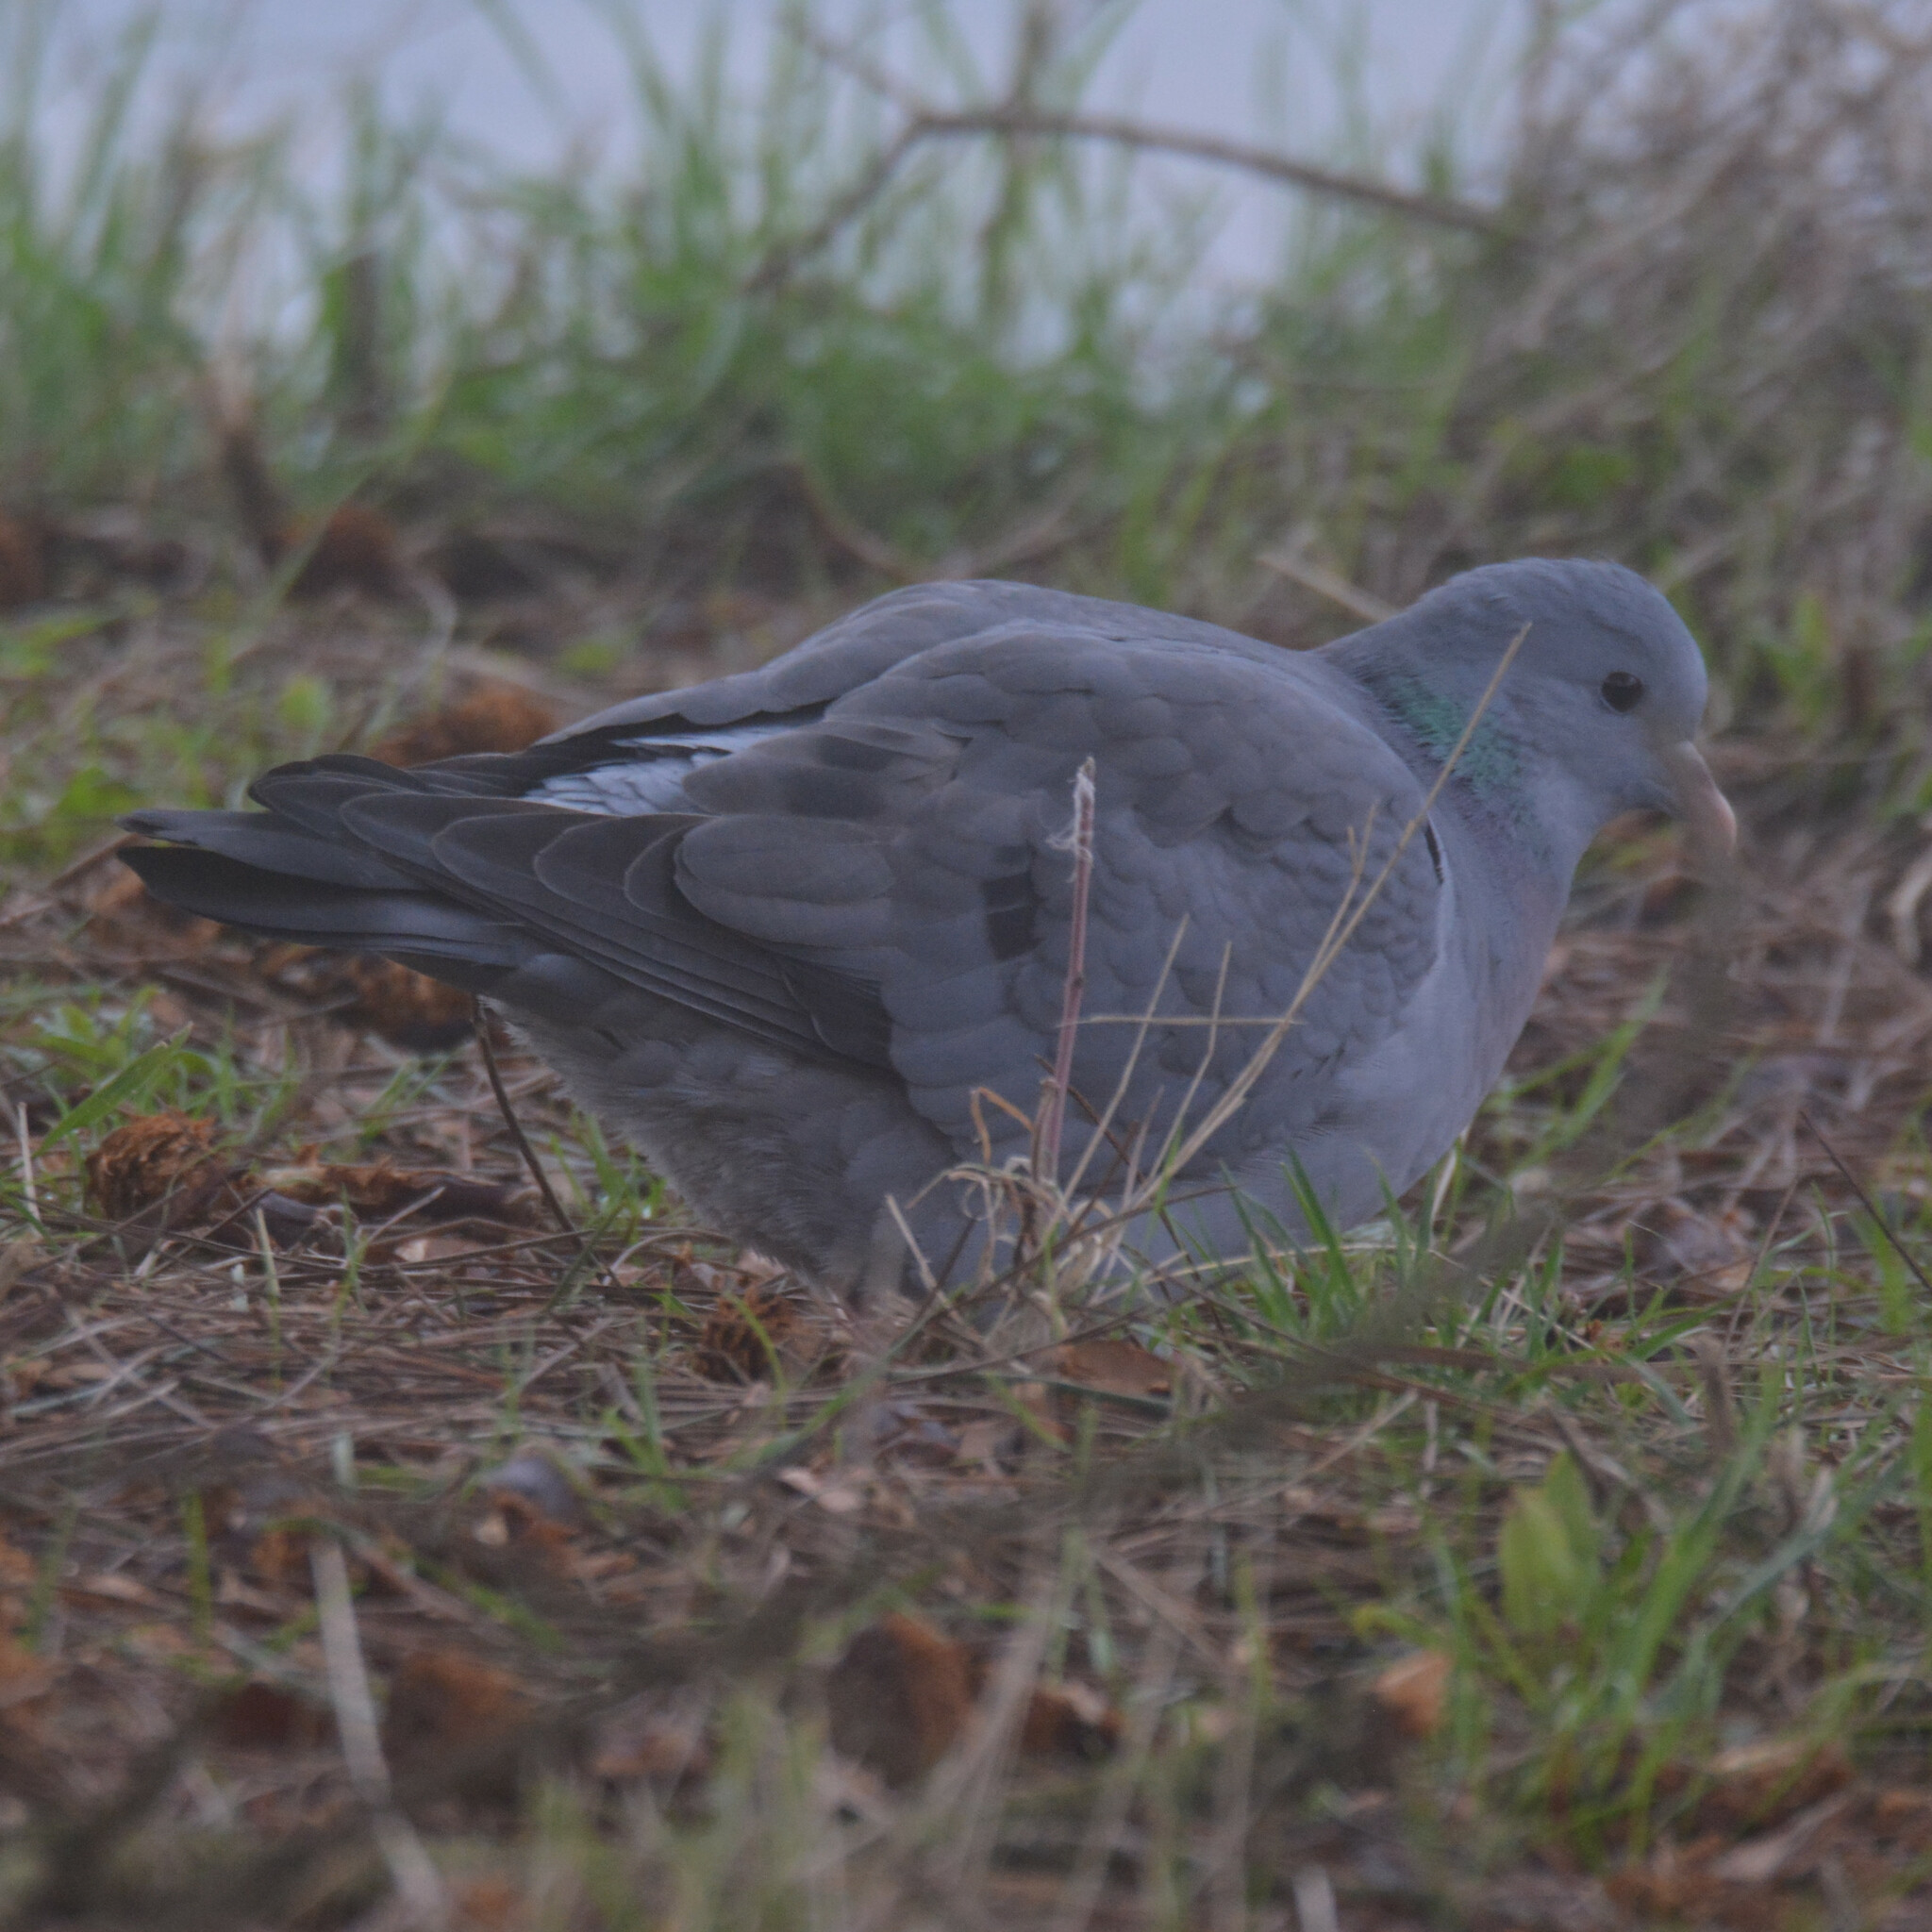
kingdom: Animalia
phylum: Chordata
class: Aves
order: Columbiformes
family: Columbidae
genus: Columba
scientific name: Columba oenas
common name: Stock dove
